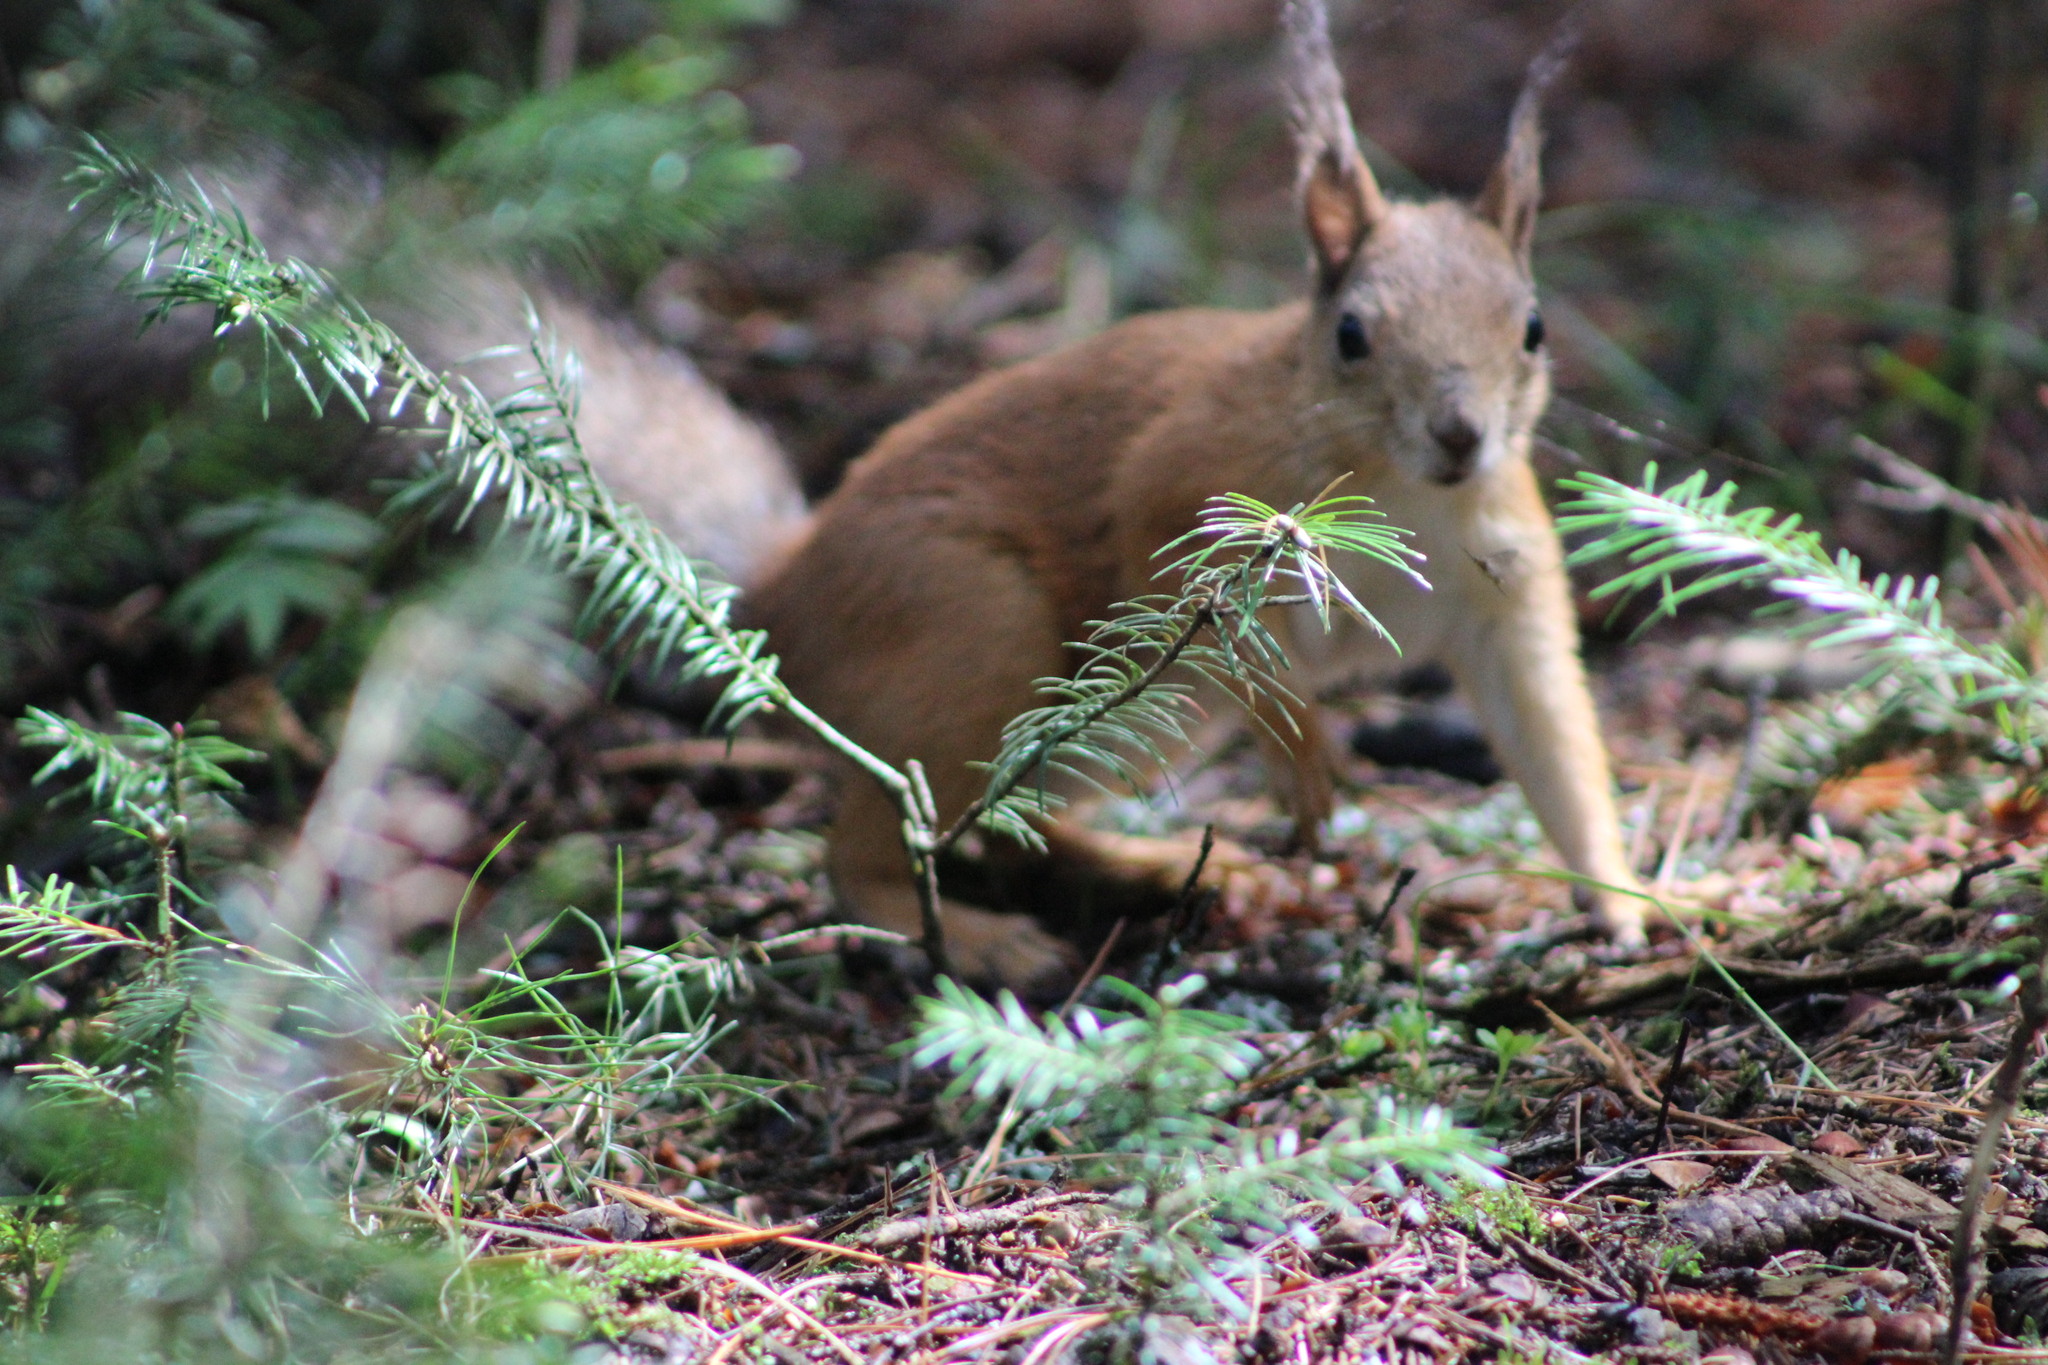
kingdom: Animalia
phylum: Chordata
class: Mammalia
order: Rodentia
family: Sciuridae
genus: Sciurus
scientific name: Sciurus vulgaris
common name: Eurasian red squirrel
